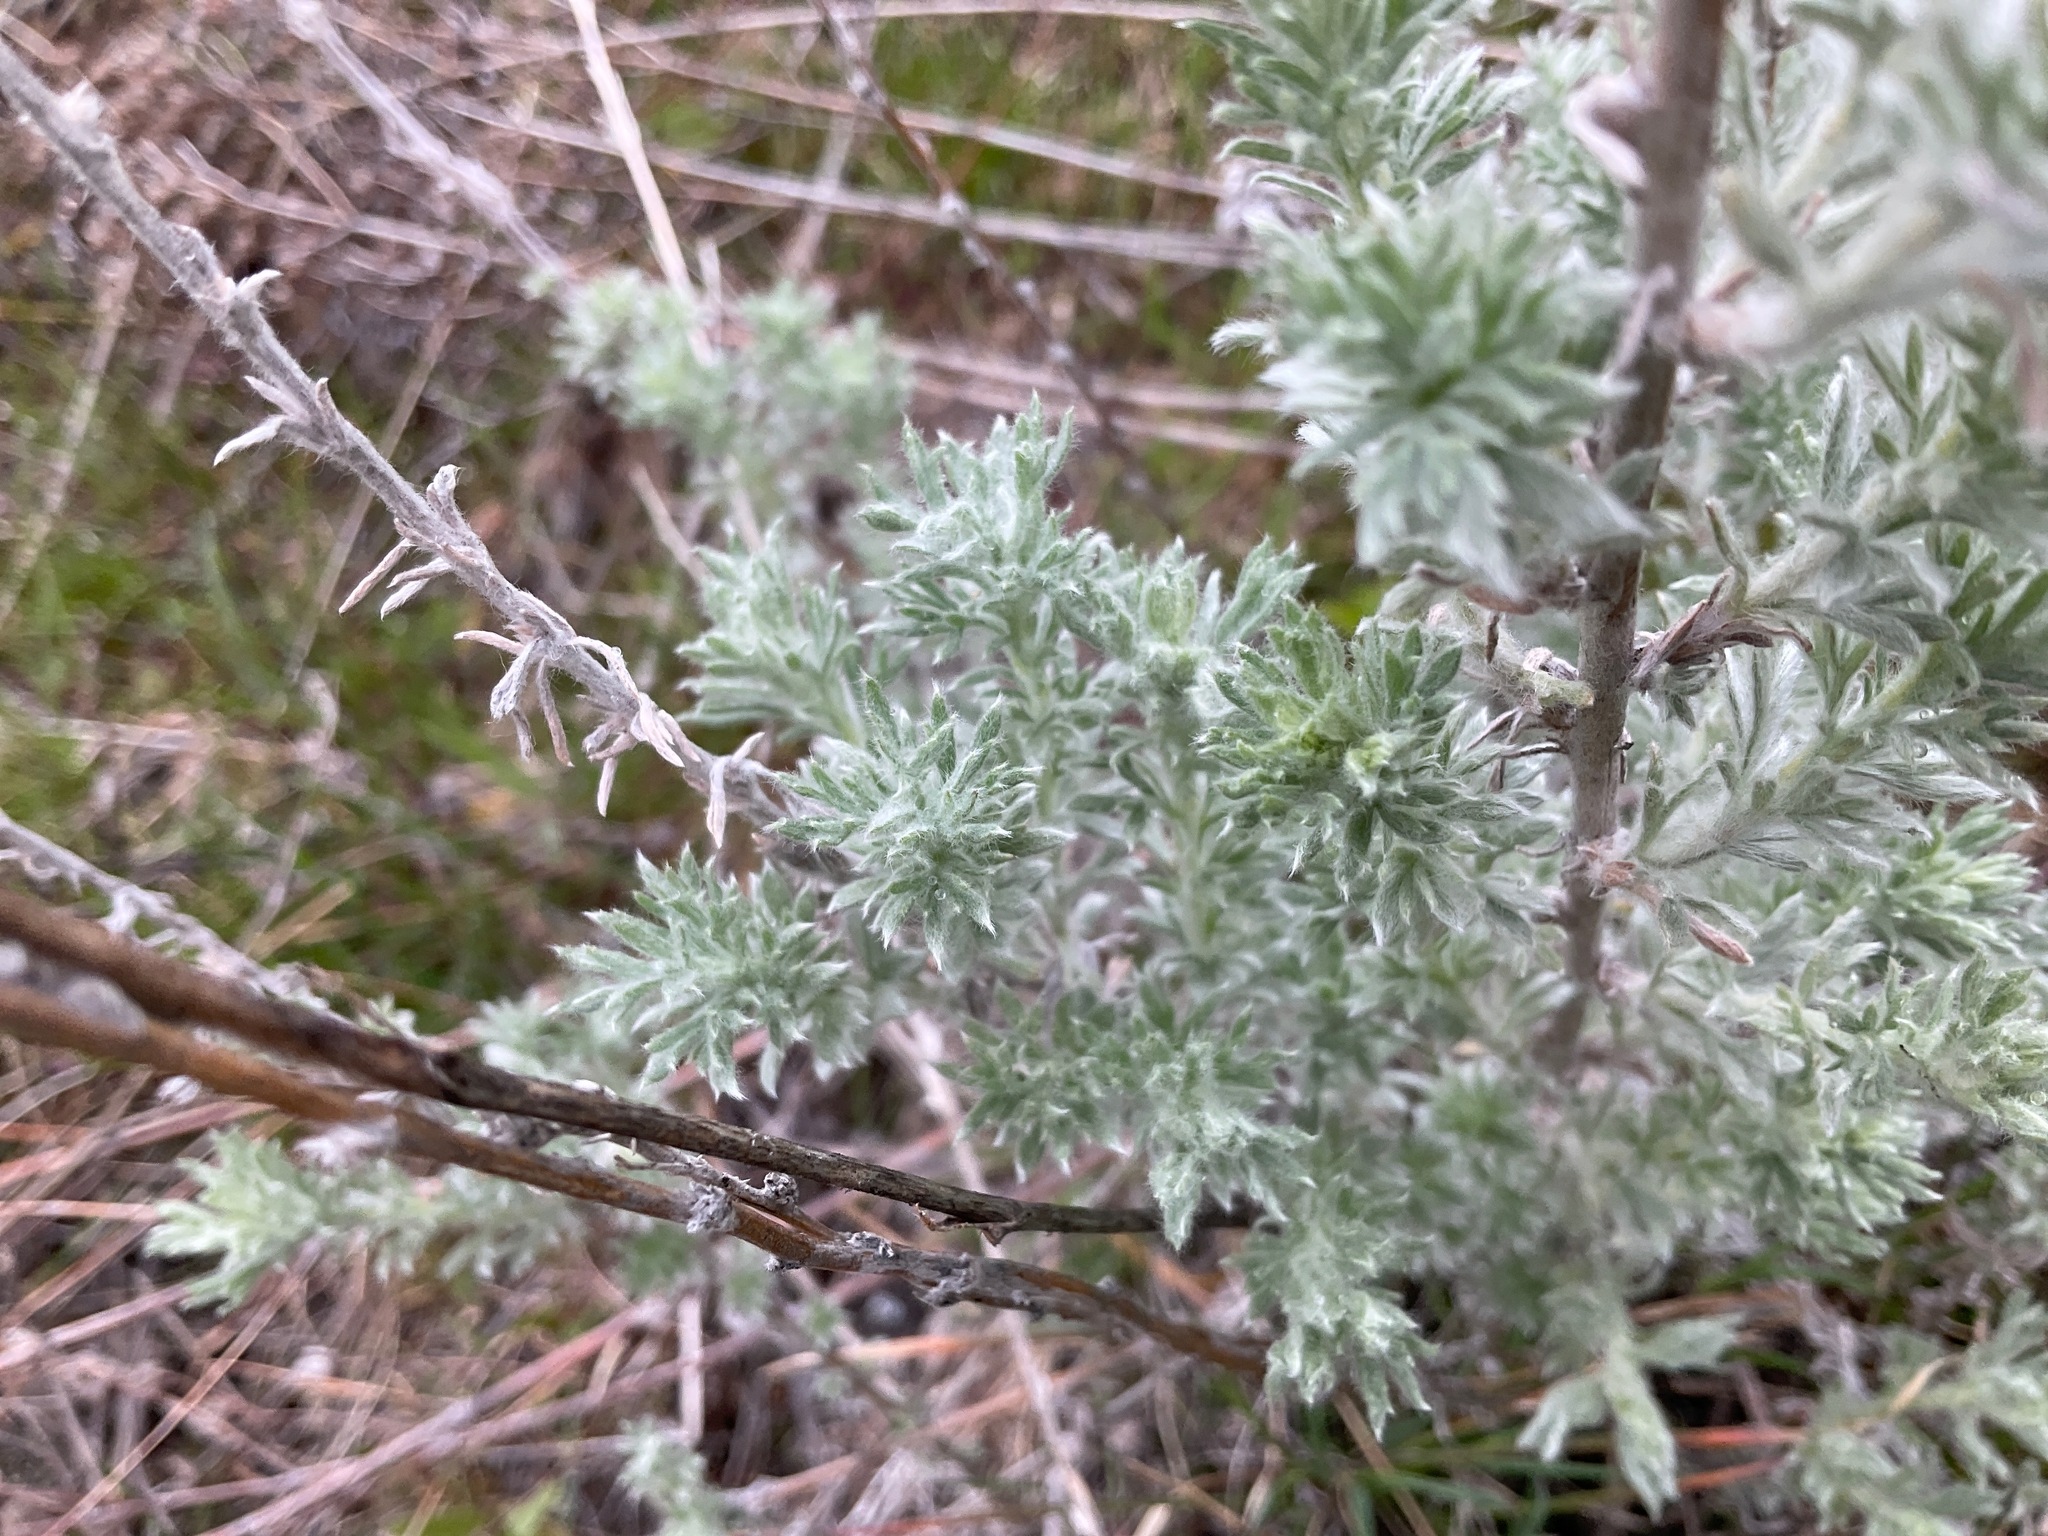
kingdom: Plantae
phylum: Tracheophyta
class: Magnoliopsida
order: Asterales
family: Asteraceae
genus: Artemisia
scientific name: Artemisia frigida
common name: Prairie sagewort
